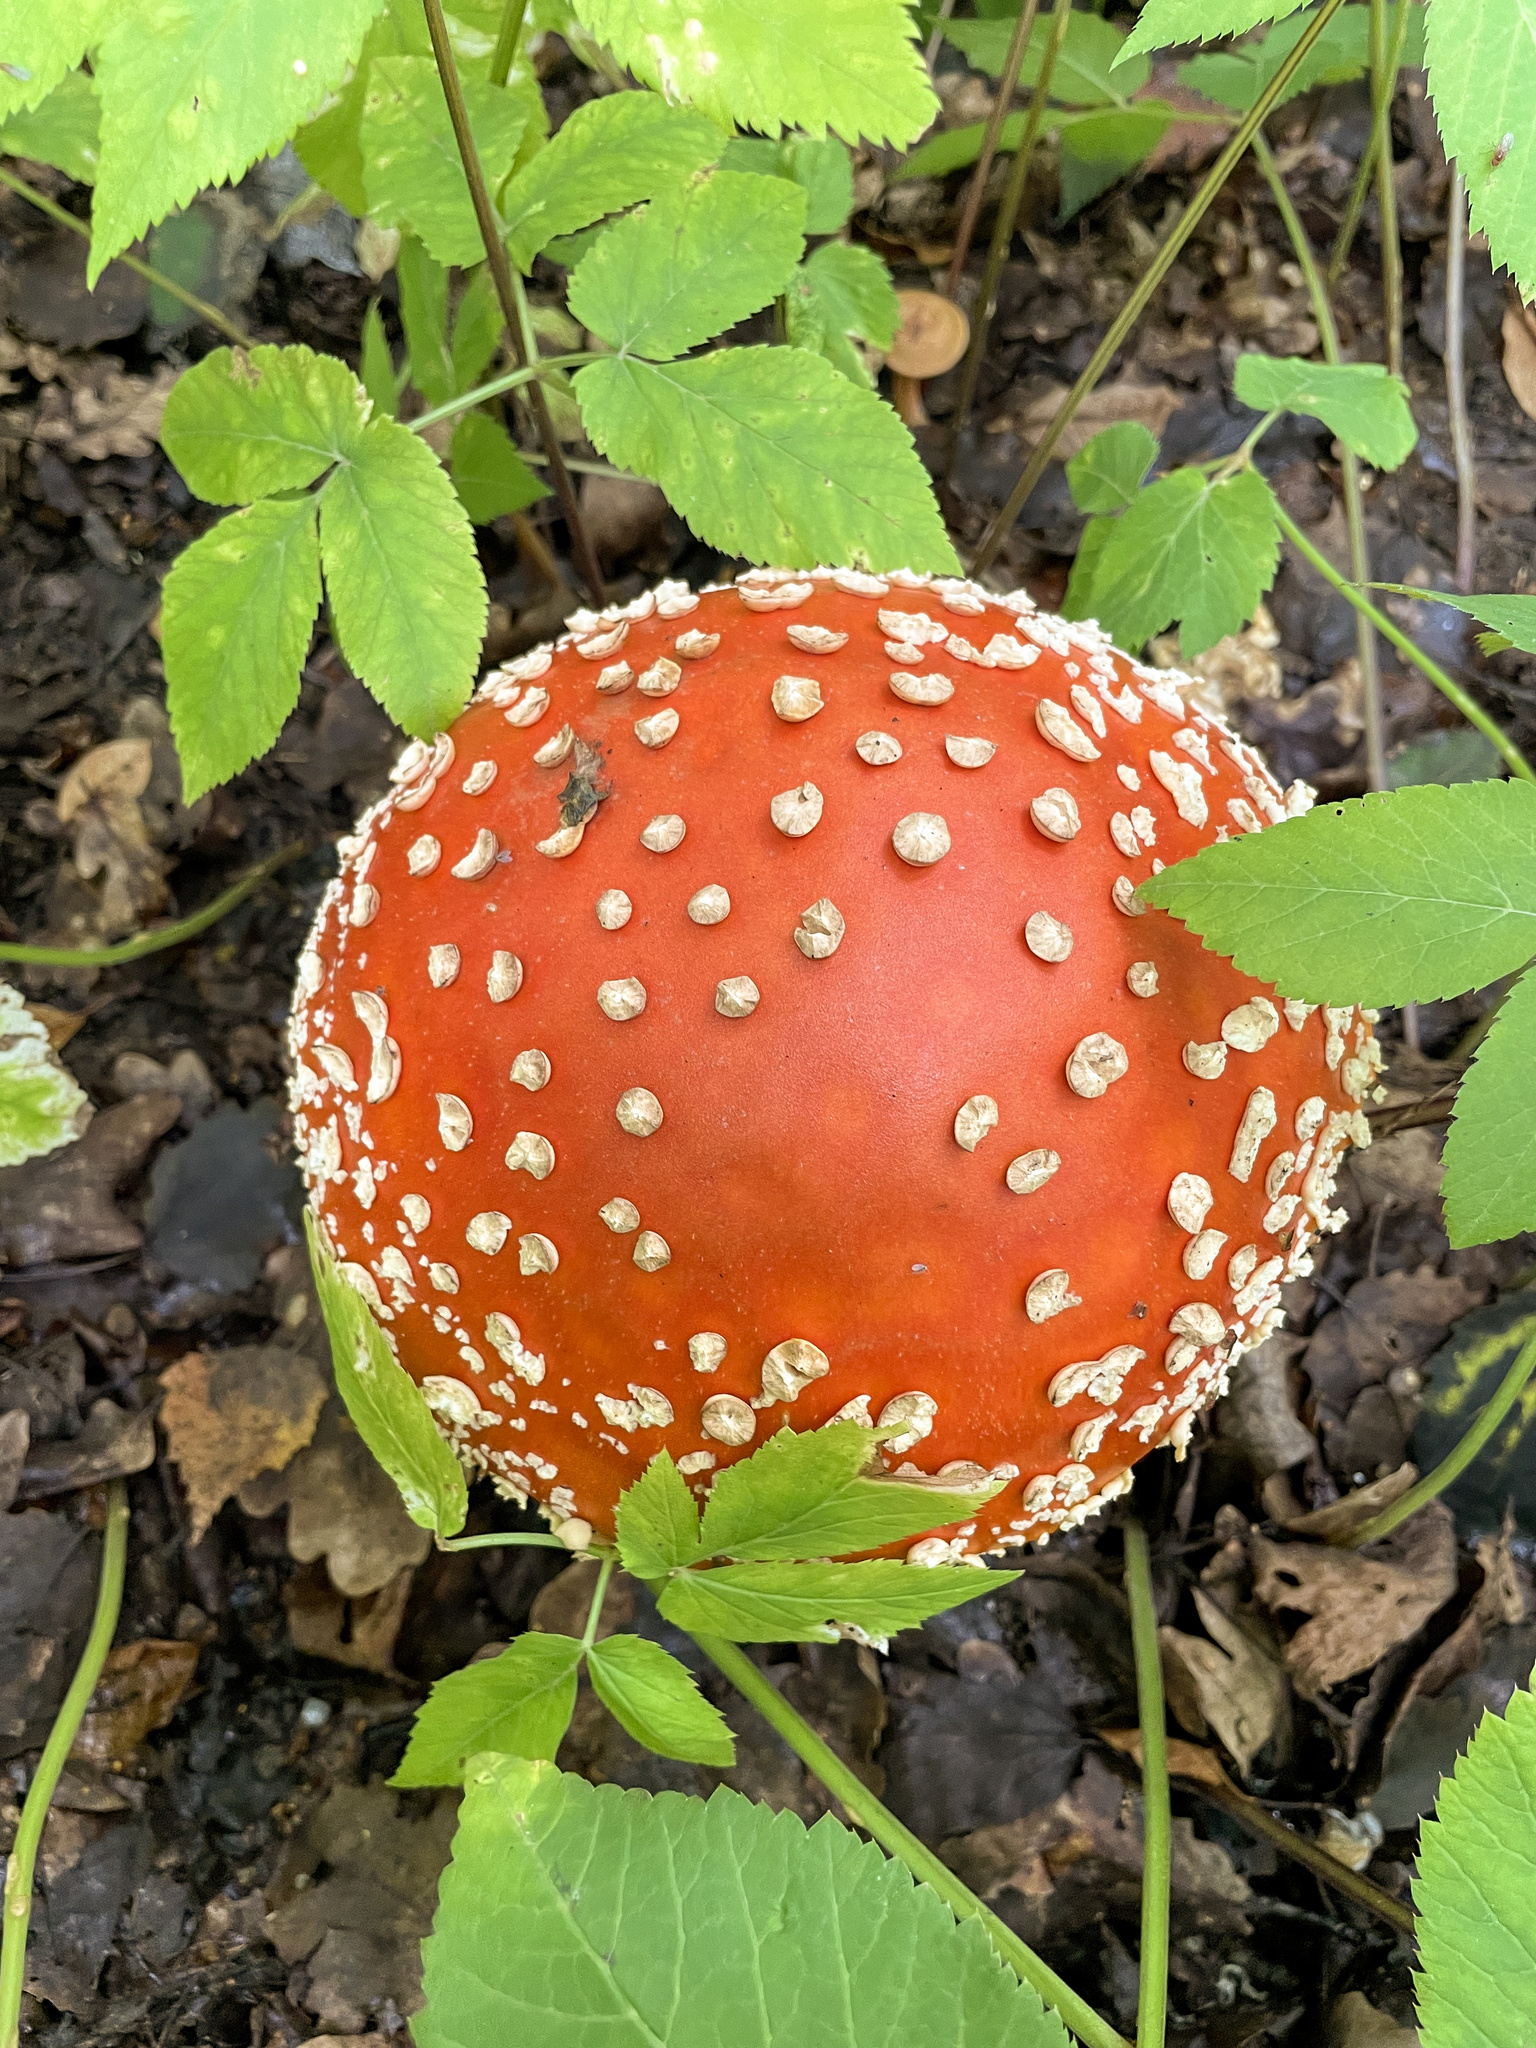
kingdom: Fungi
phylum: Basidiomycota
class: Agaricomycetes
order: Agaricales
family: Amanitaceae
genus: Amanita
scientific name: Amanita muscaria
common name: Fly agaric
